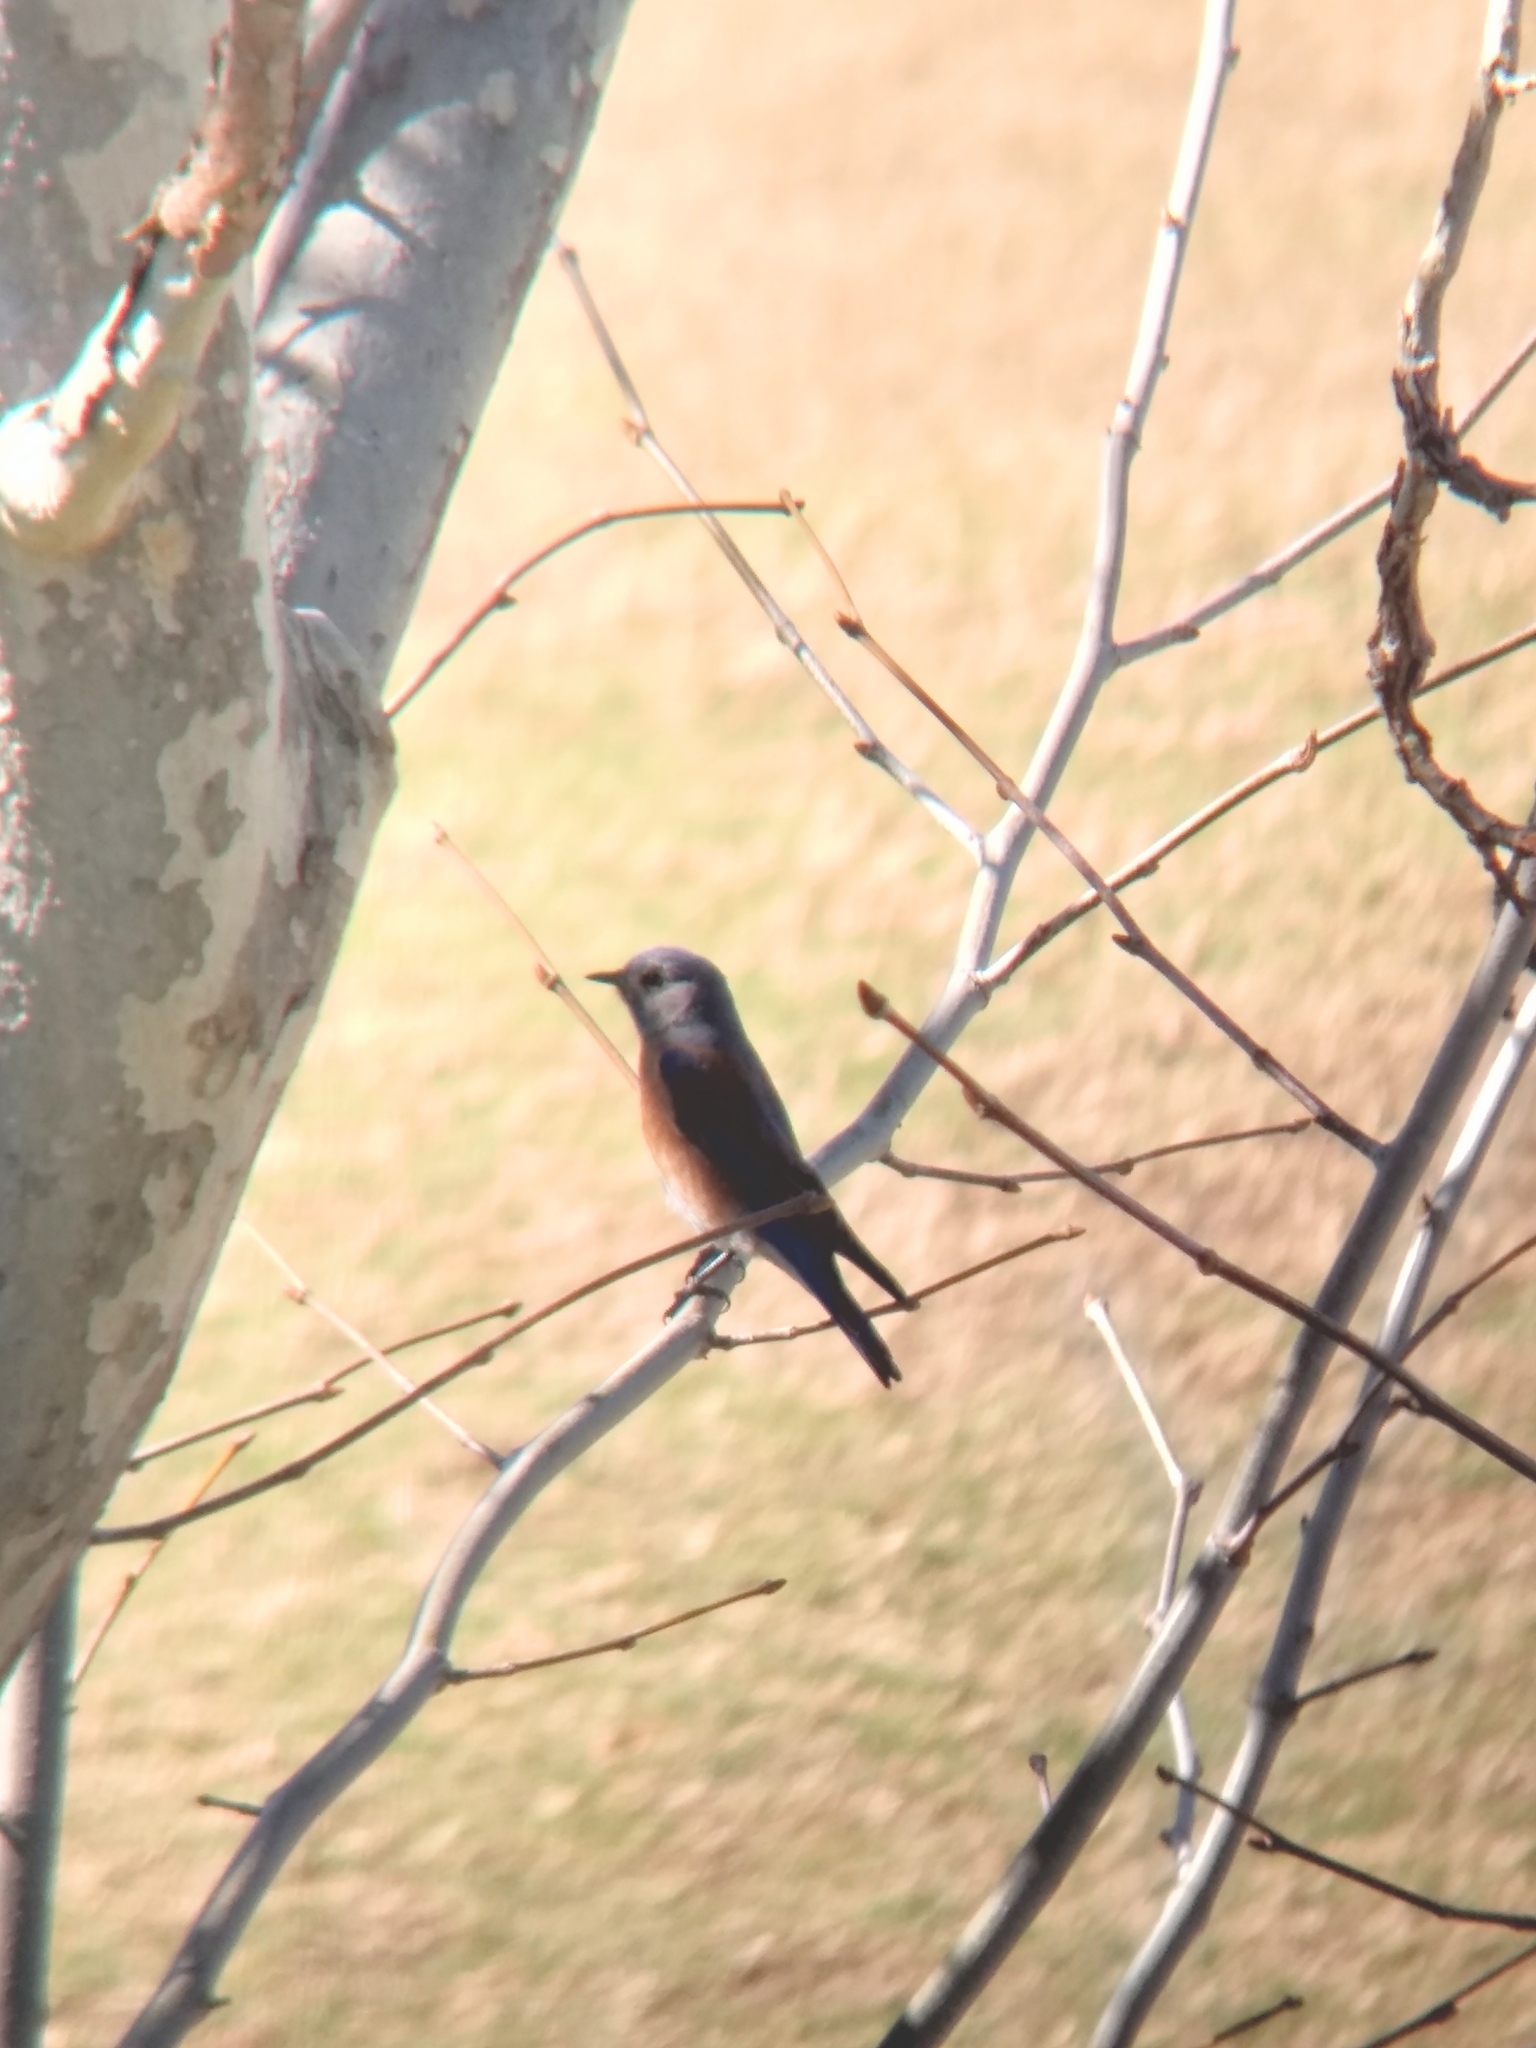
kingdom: Animalia
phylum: Chordata
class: Aves
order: Passeriformes
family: Turdidae
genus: Sialia
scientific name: Sialia mexicana
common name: Western bluebird
